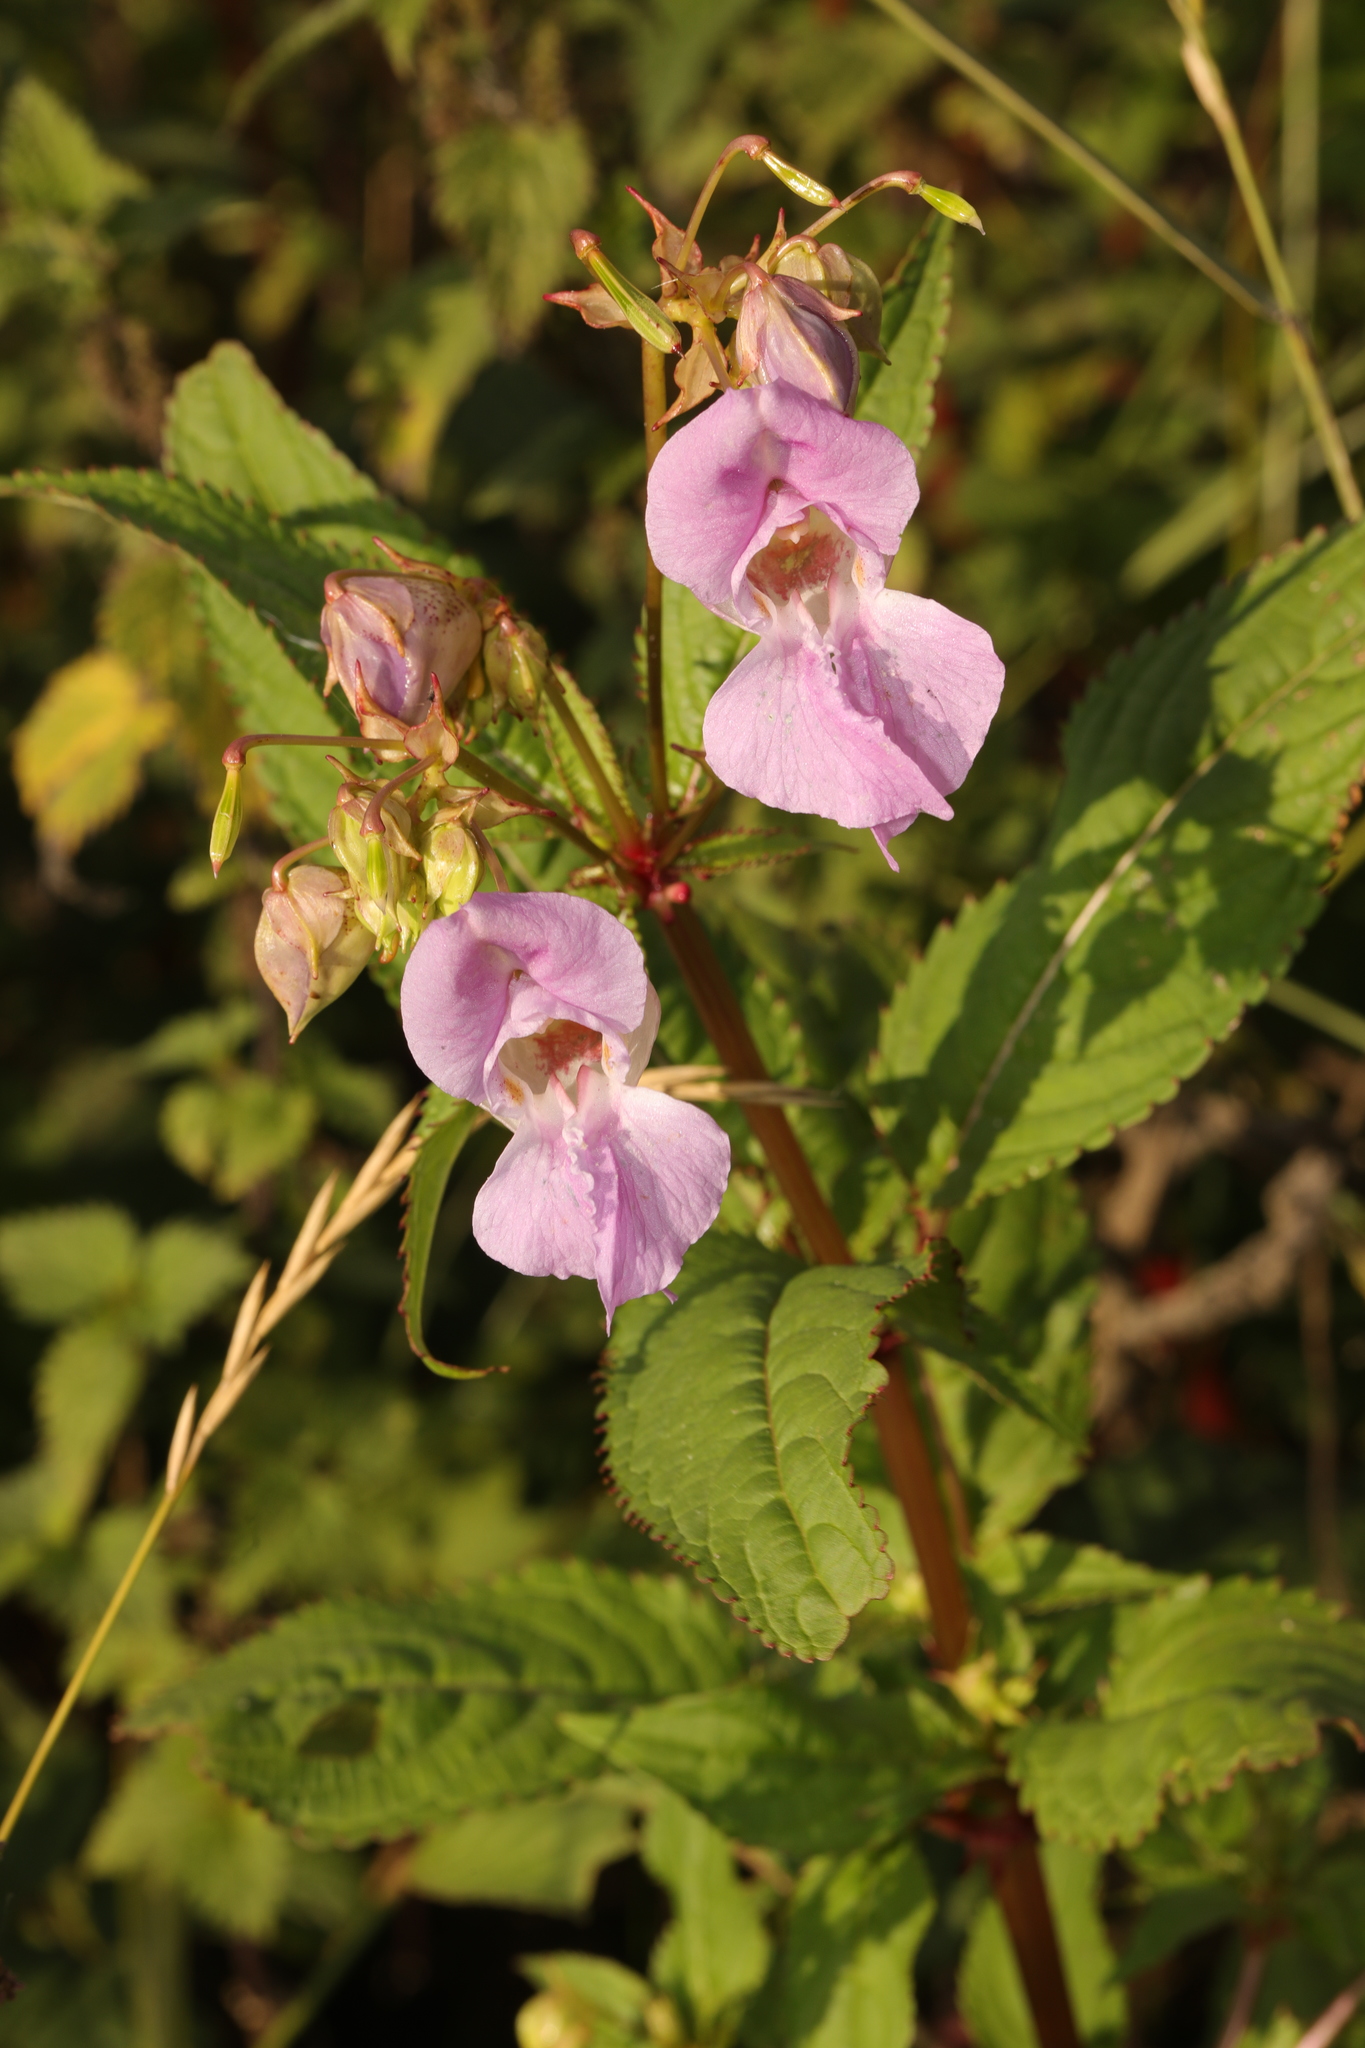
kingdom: Plantae
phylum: Tracheophyta
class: Magnoliopsida
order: Ericales
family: Balsaminaceae
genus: Impatiens
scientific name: Impatiens glandulifera
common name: Himalayan balsam
